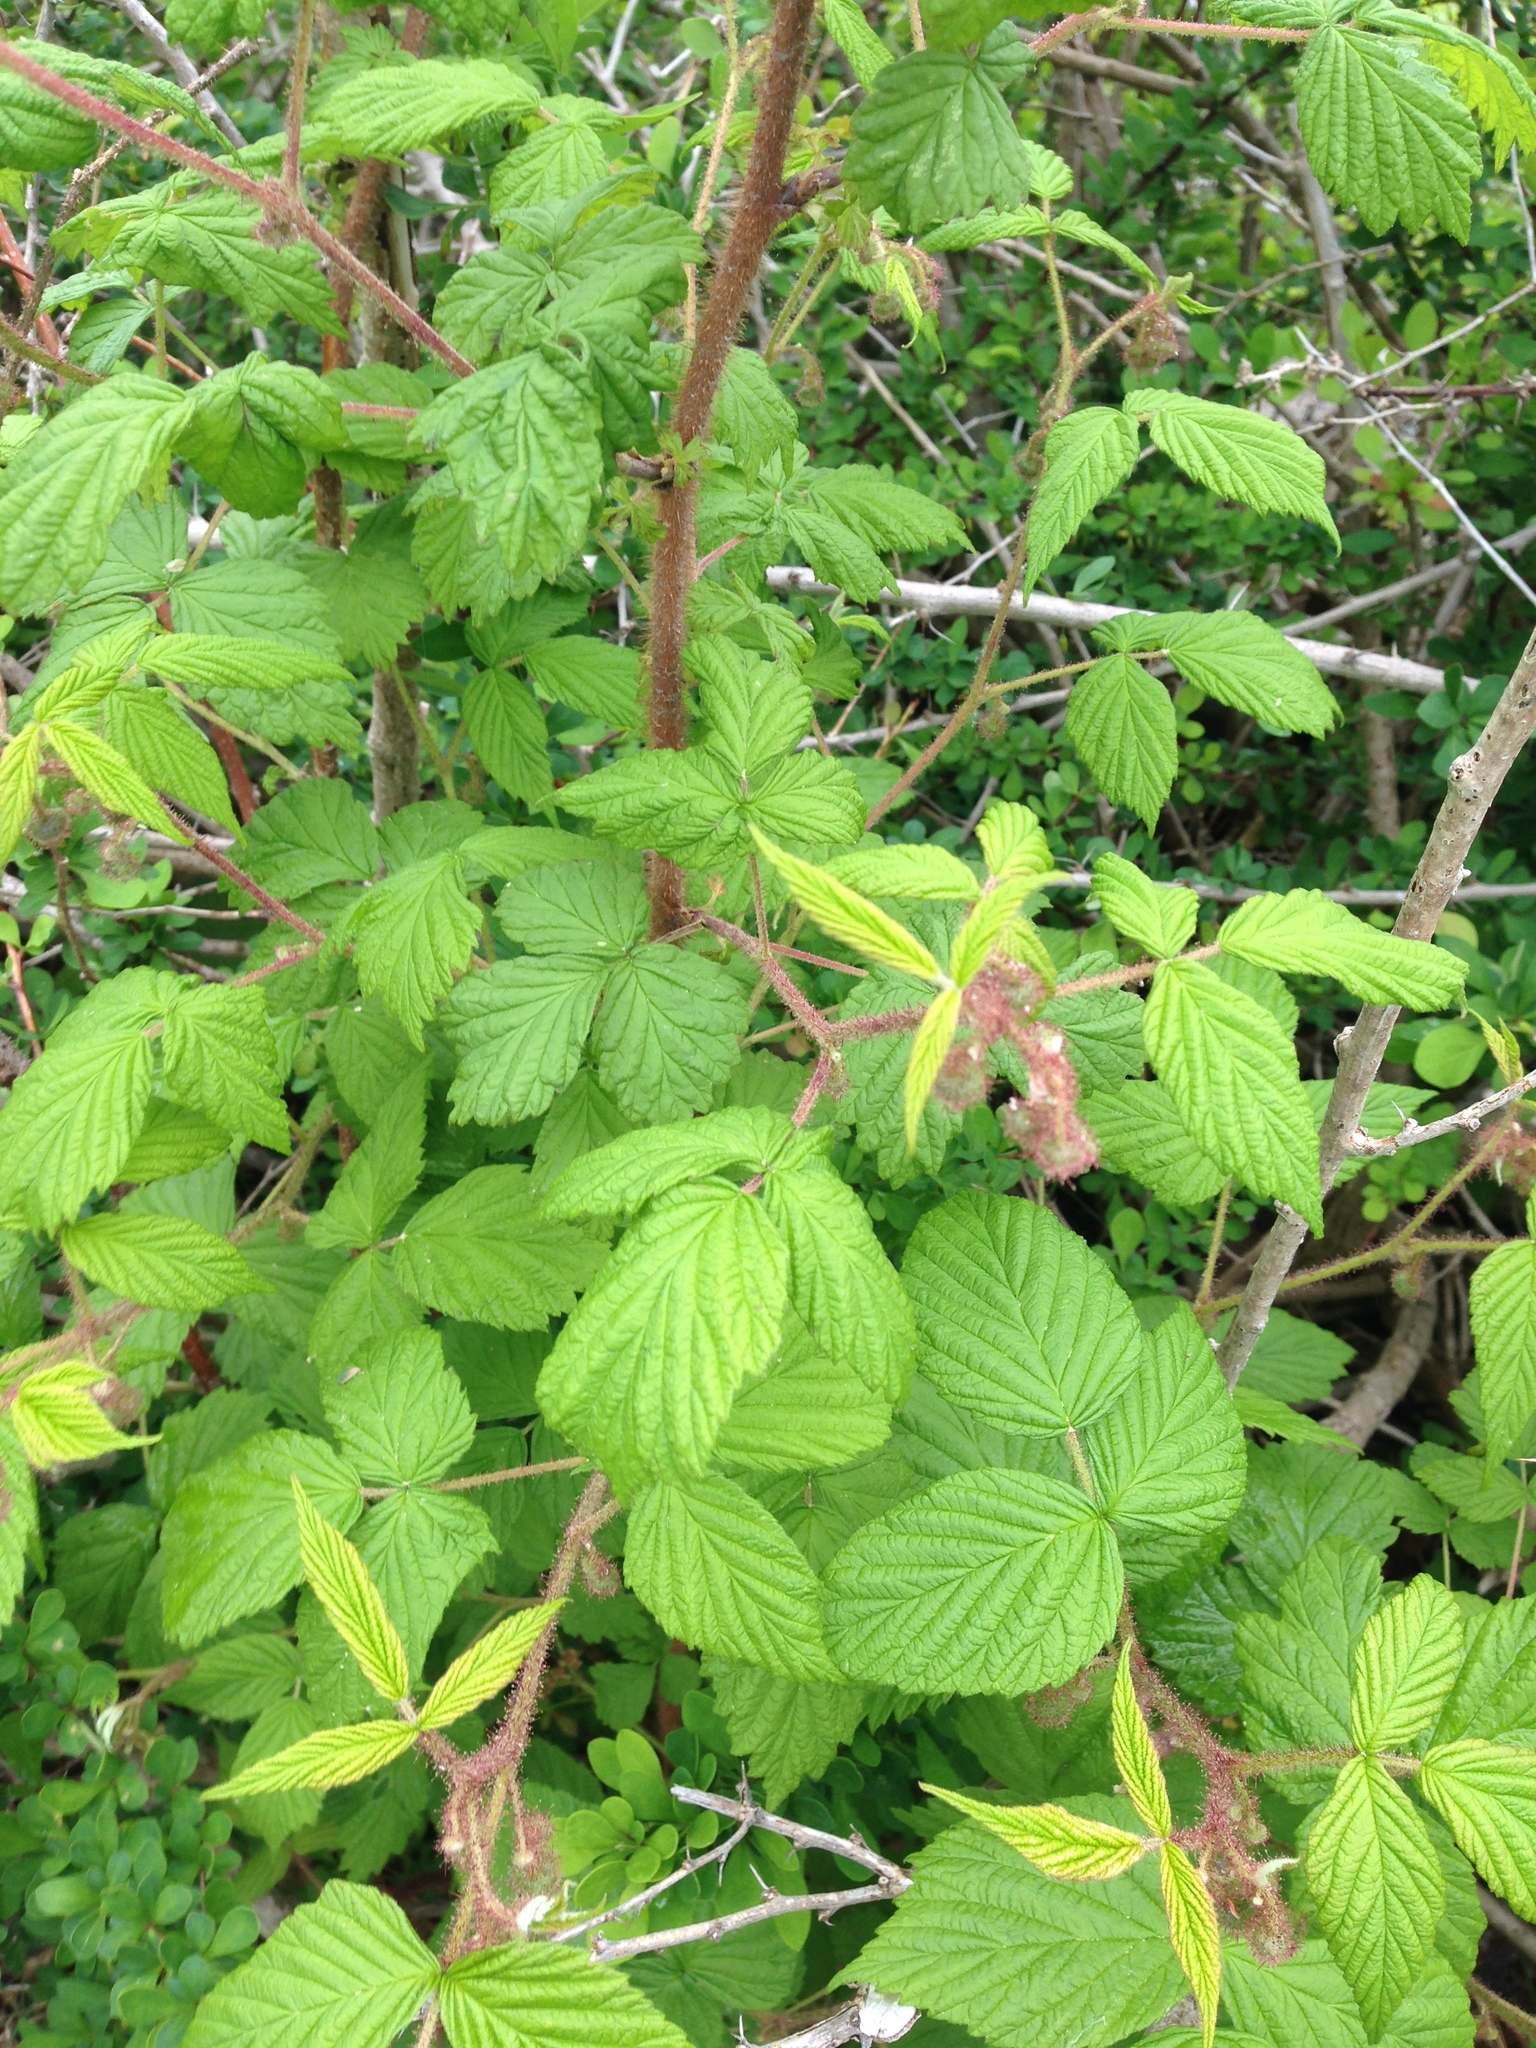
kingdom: Plantae
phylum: Tracheophyta
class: Magnoliopsida
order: Rosales
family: Rosaceae
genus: Rubus
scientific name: Rubus idaeus
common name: Raspberry
